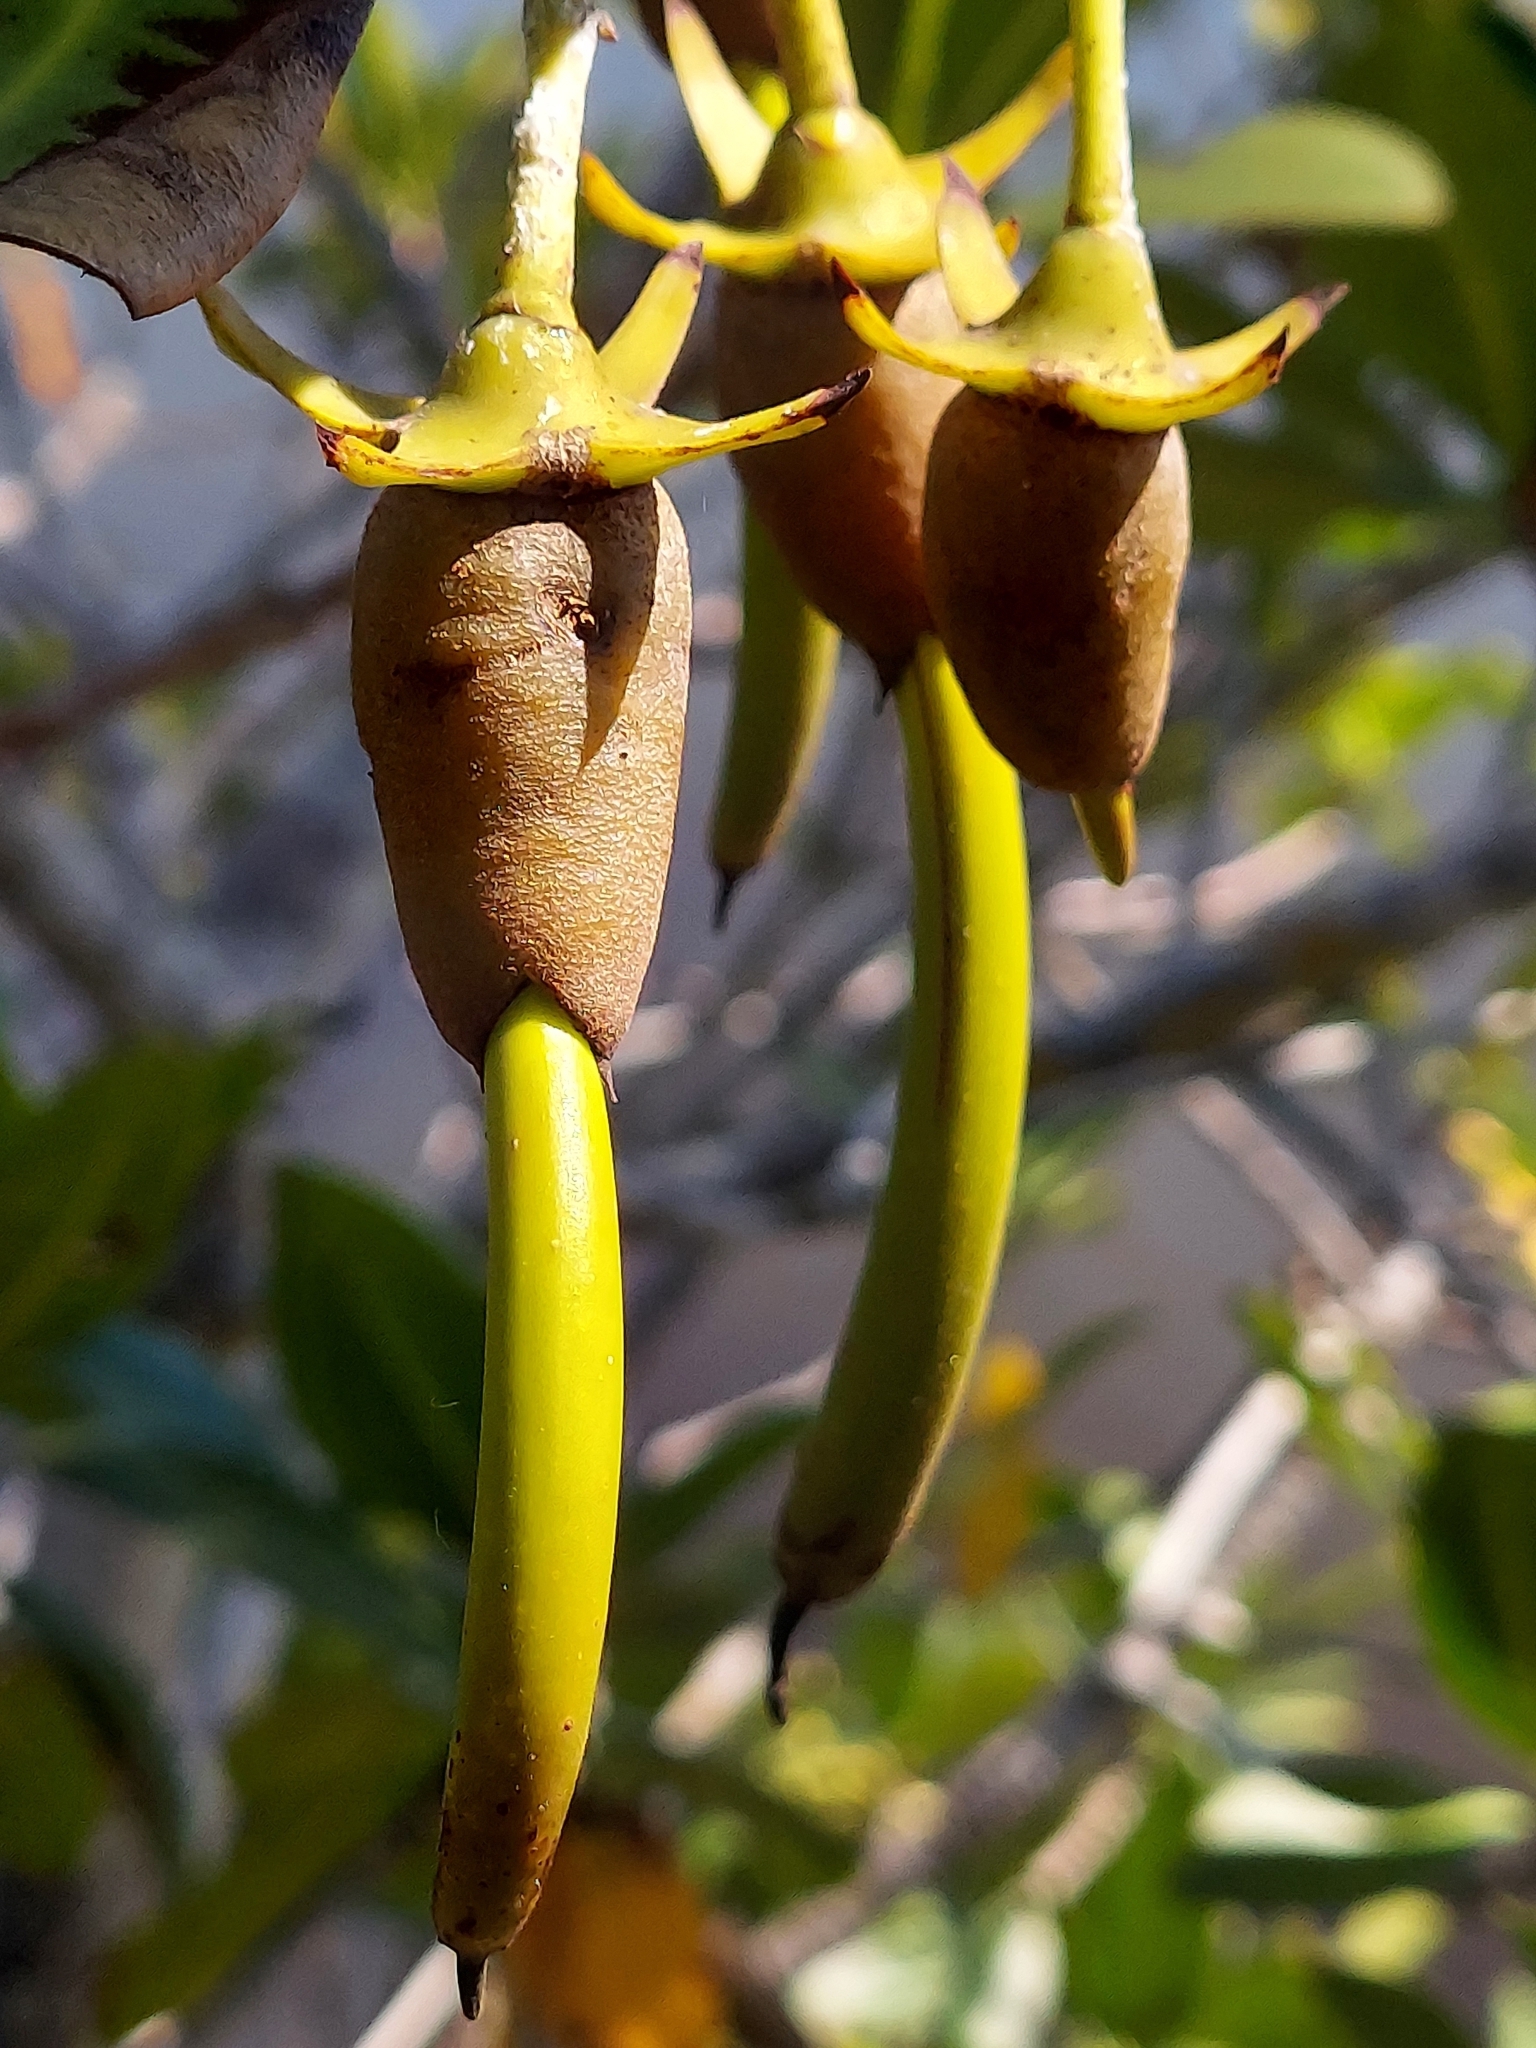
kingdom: Plantae
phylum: Tracheophyta
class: Magnoliopsida
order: Malpighiales
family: Rhizophoraceae
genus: Rhizophora
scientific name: Rhizophora mangle
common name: Red mangrove
